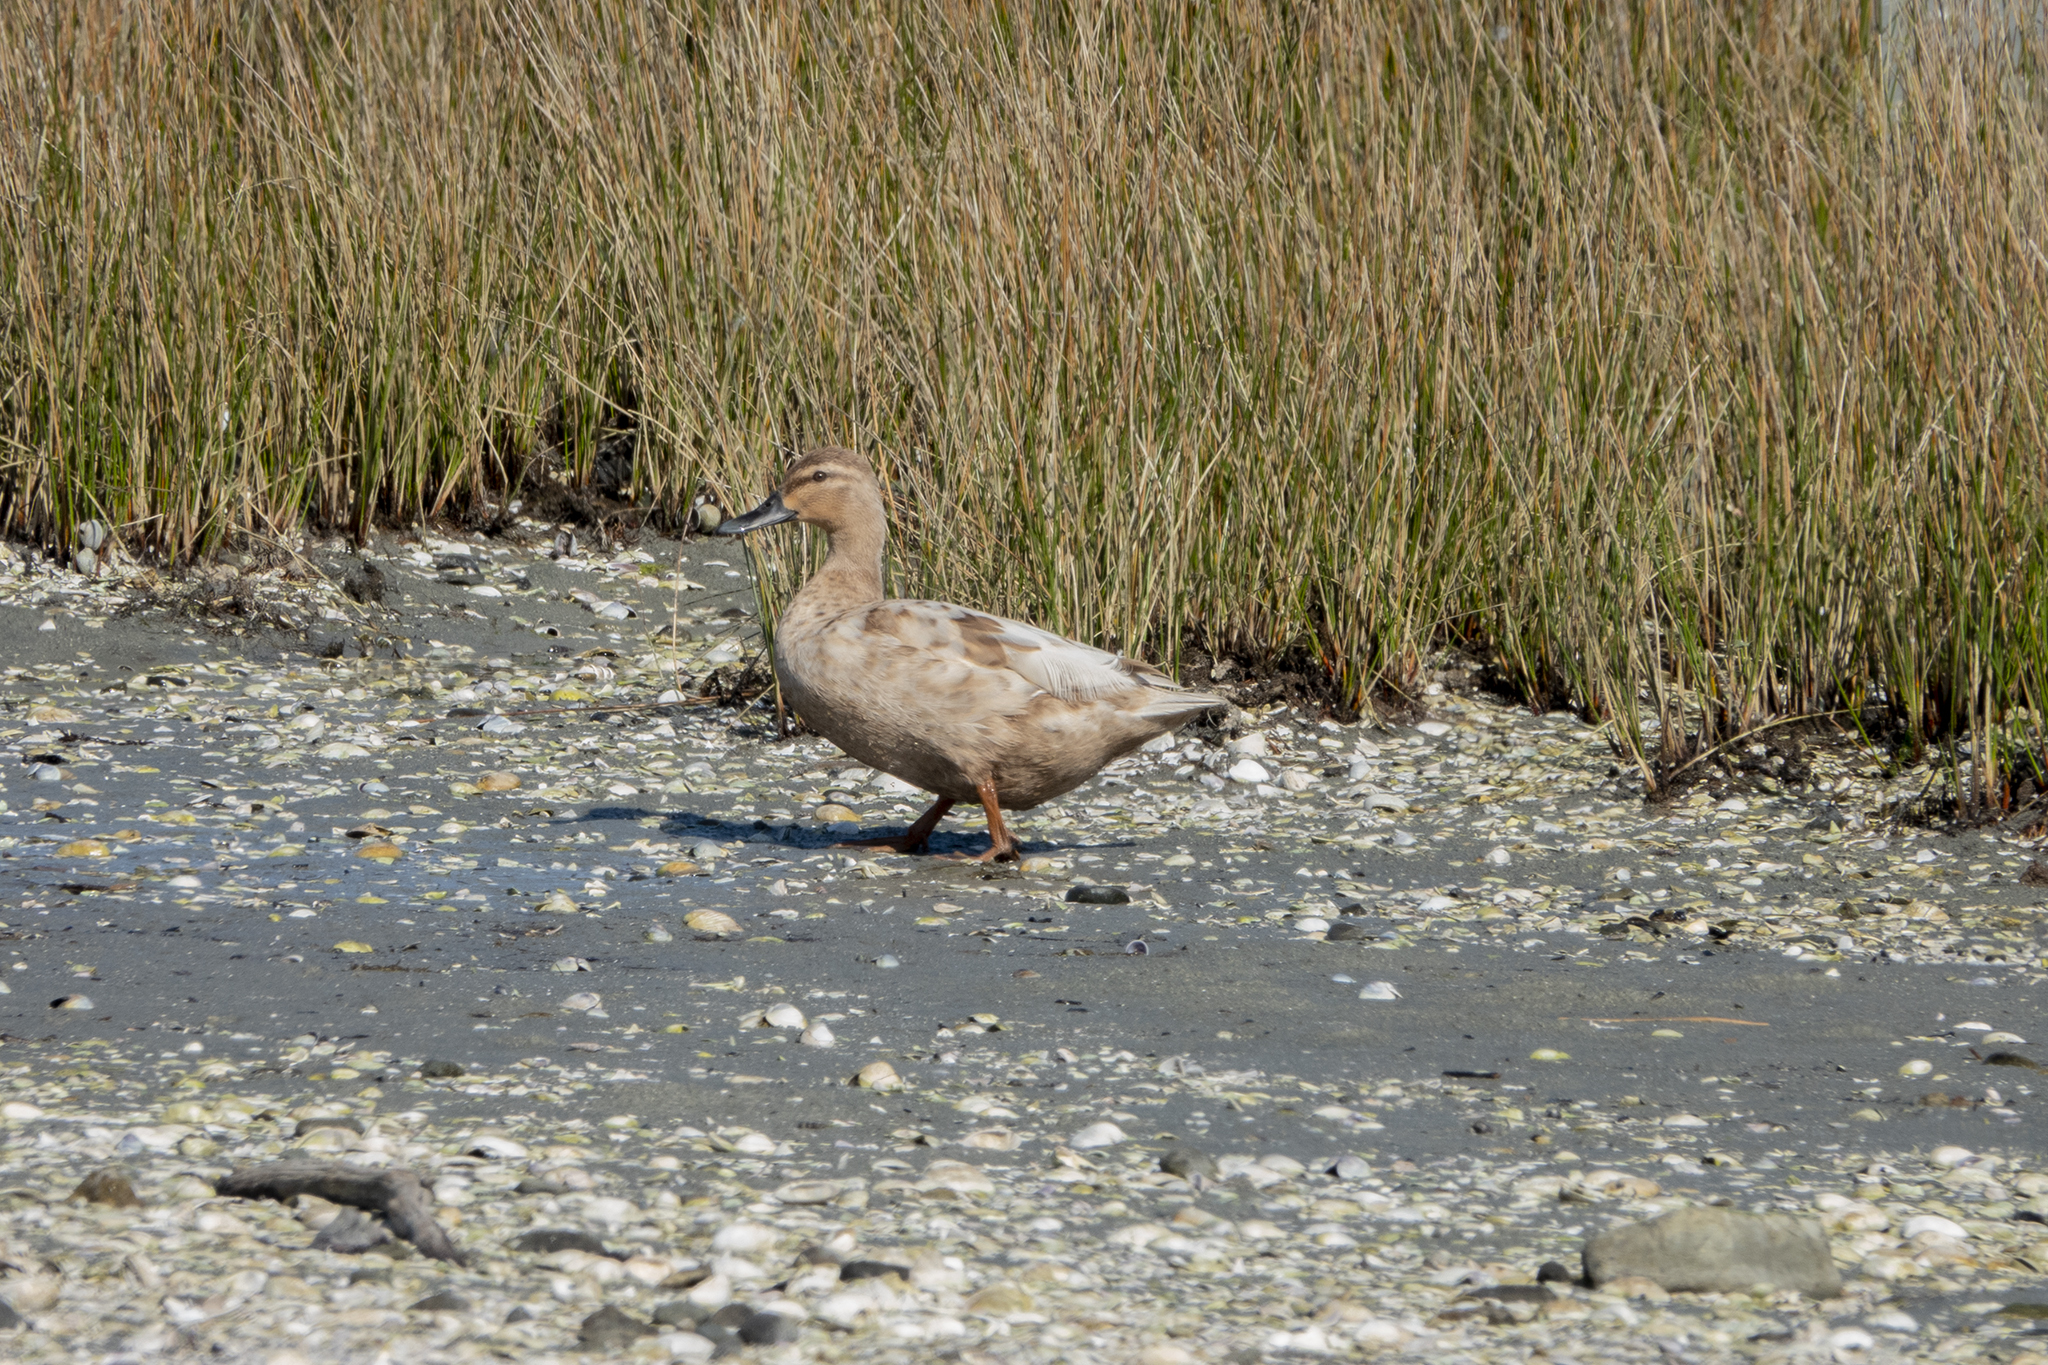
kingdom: Animalia
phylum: Chordata
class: Aves
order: Anseriformes
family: Anatidae
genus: Anas
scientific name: Anas
